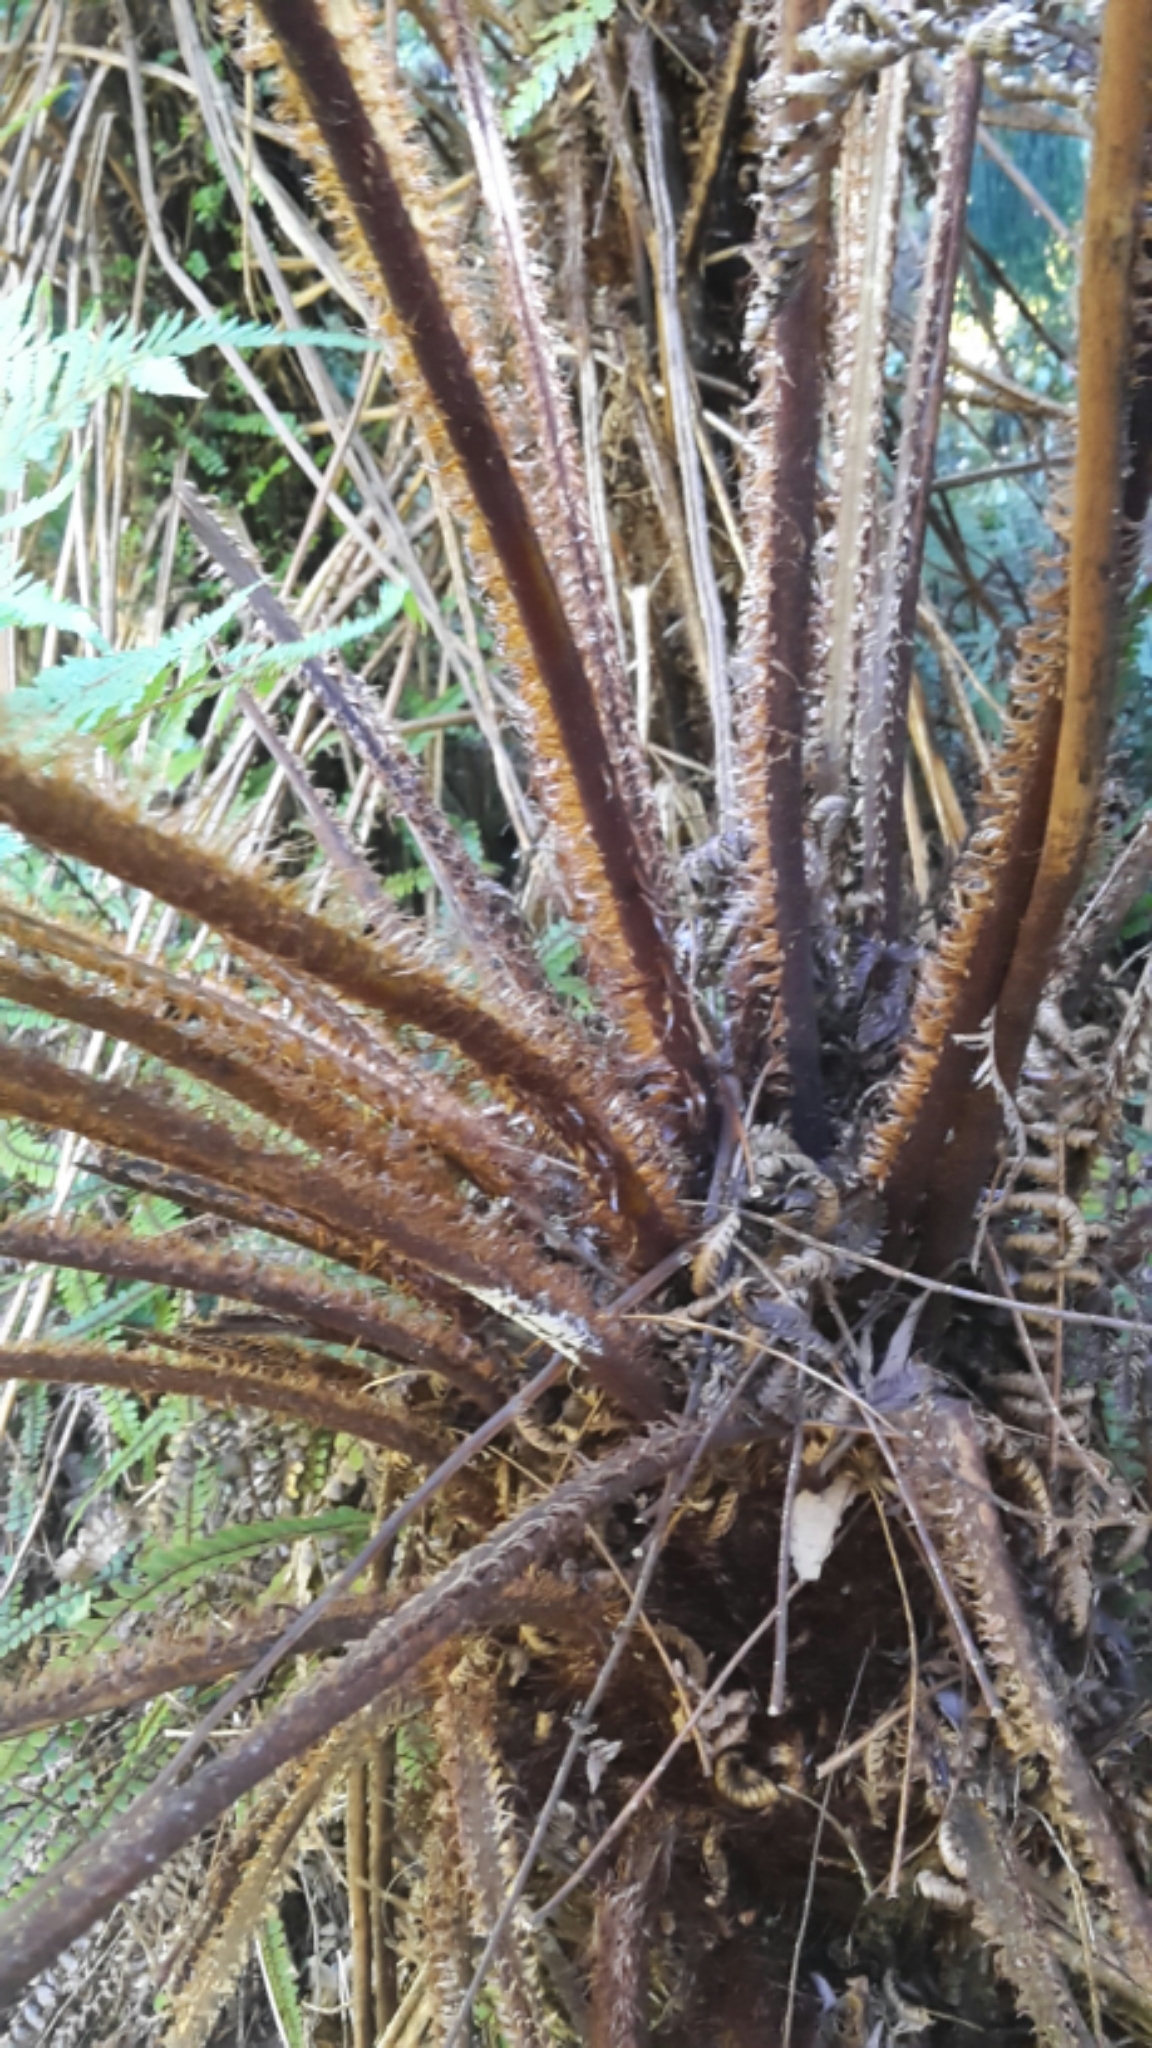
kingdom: Plantae
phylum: Tracheophyta
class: Polypodiopsida
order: Cyatheales
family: Cyatheaceae
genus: Alsophila
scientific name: Alsophila smithii
